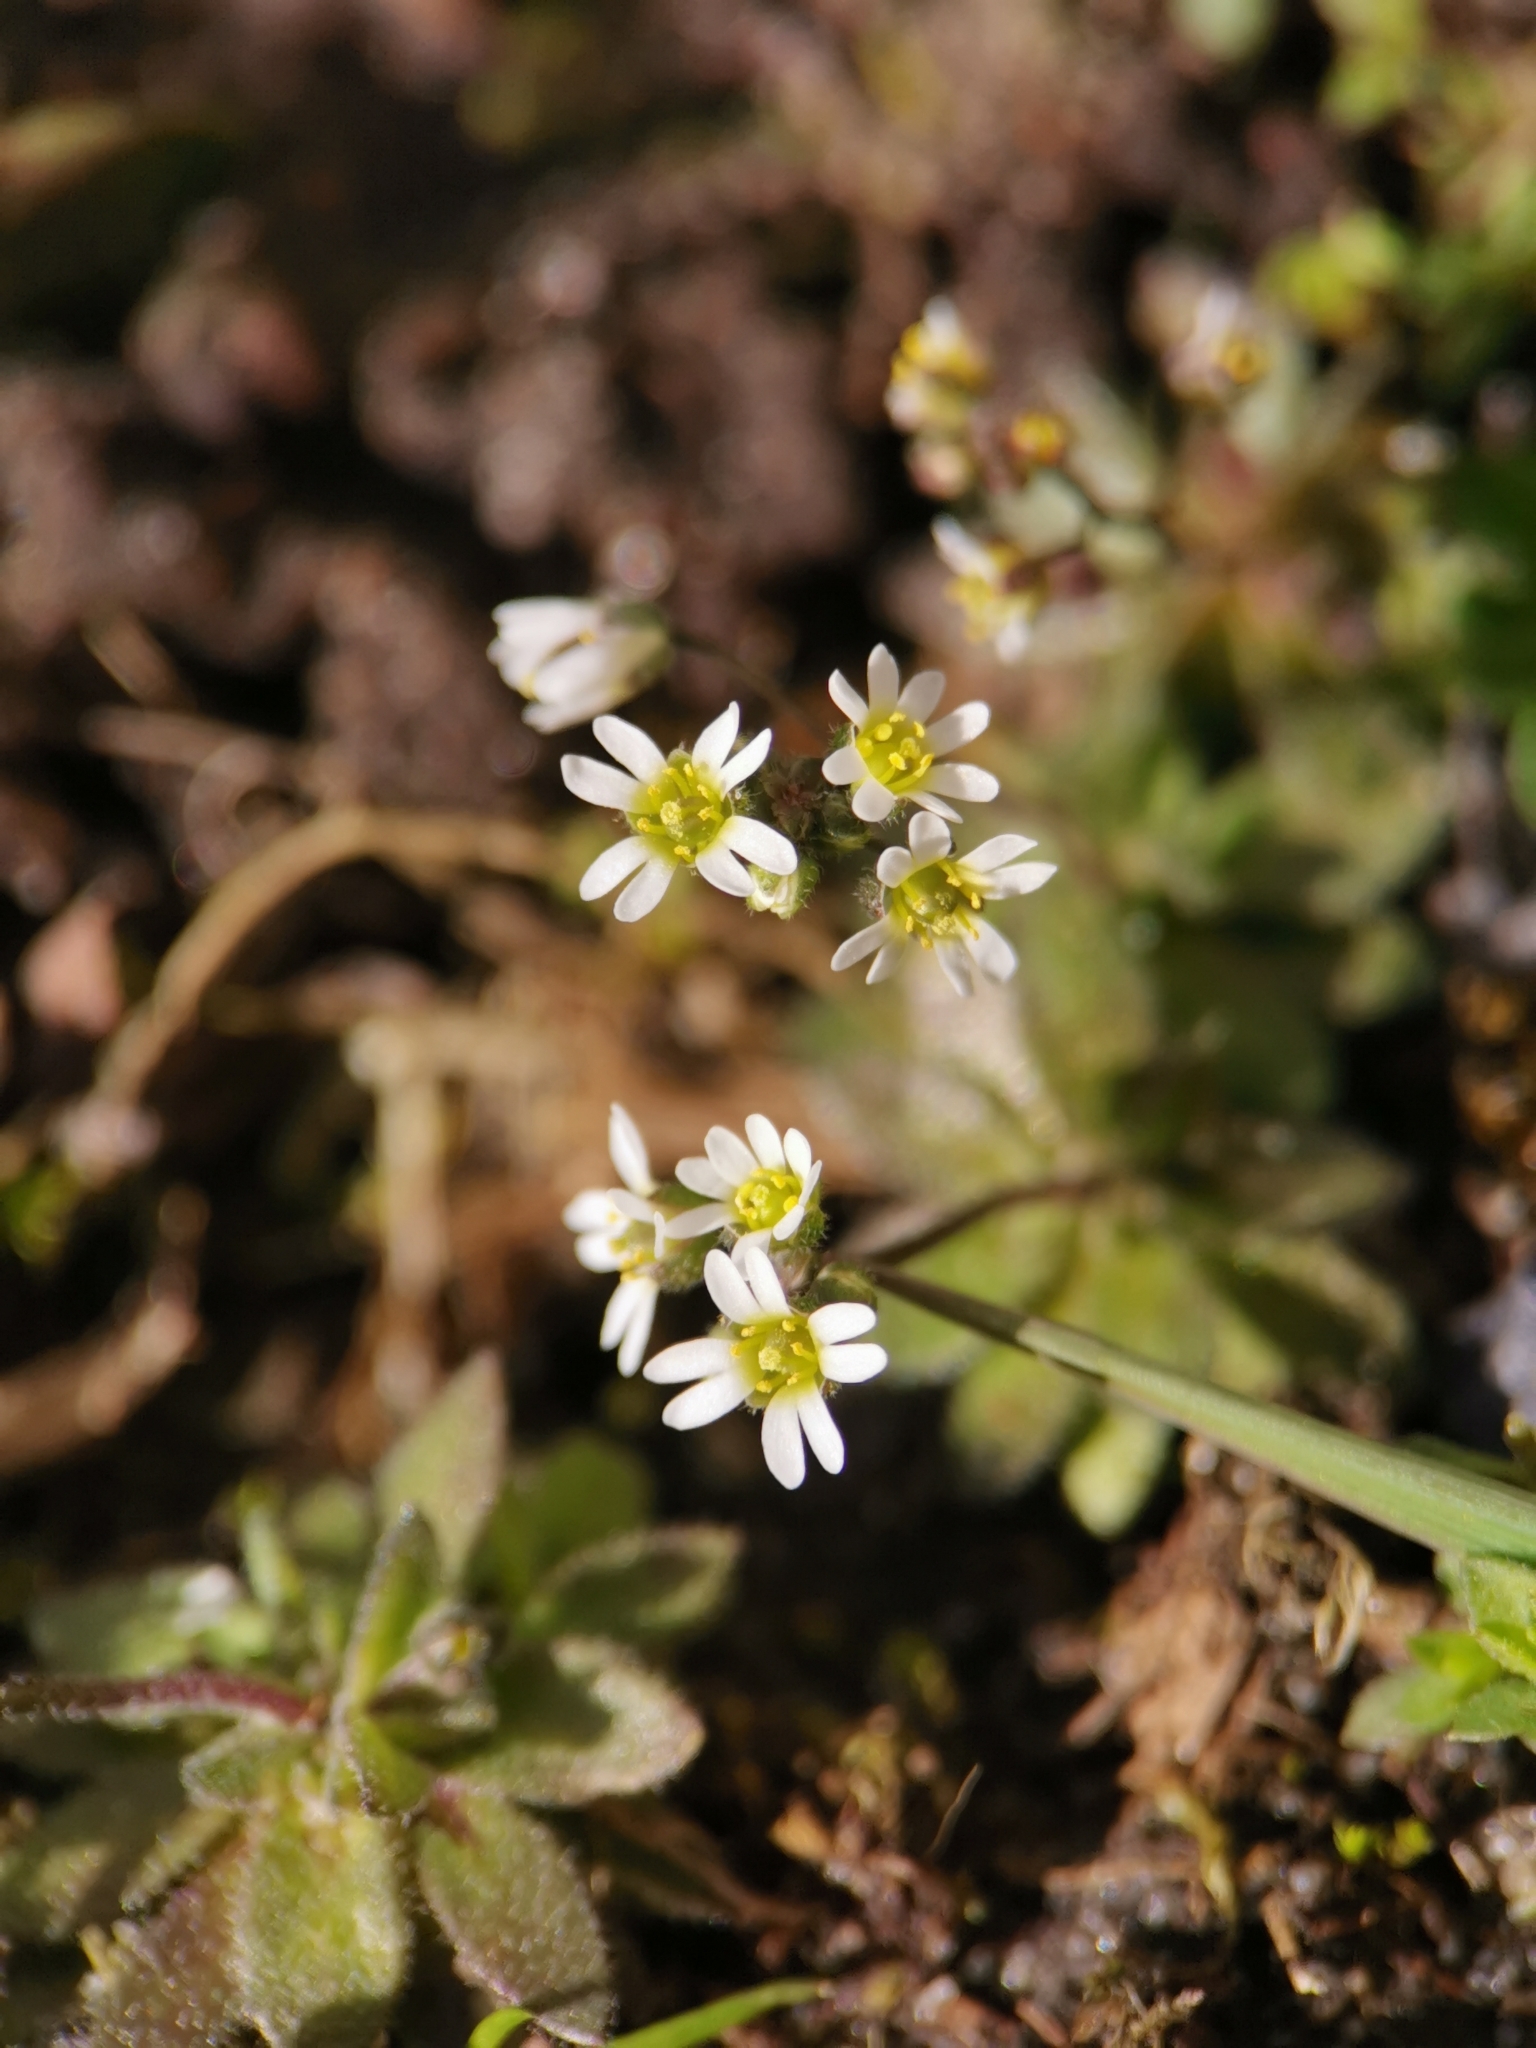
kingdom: Plantae
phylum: Tracheophyta
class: Magnoliopsida
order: Brassicales
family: Brassicaceae
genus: Draba
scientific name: Draba verna
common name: Spring draba
